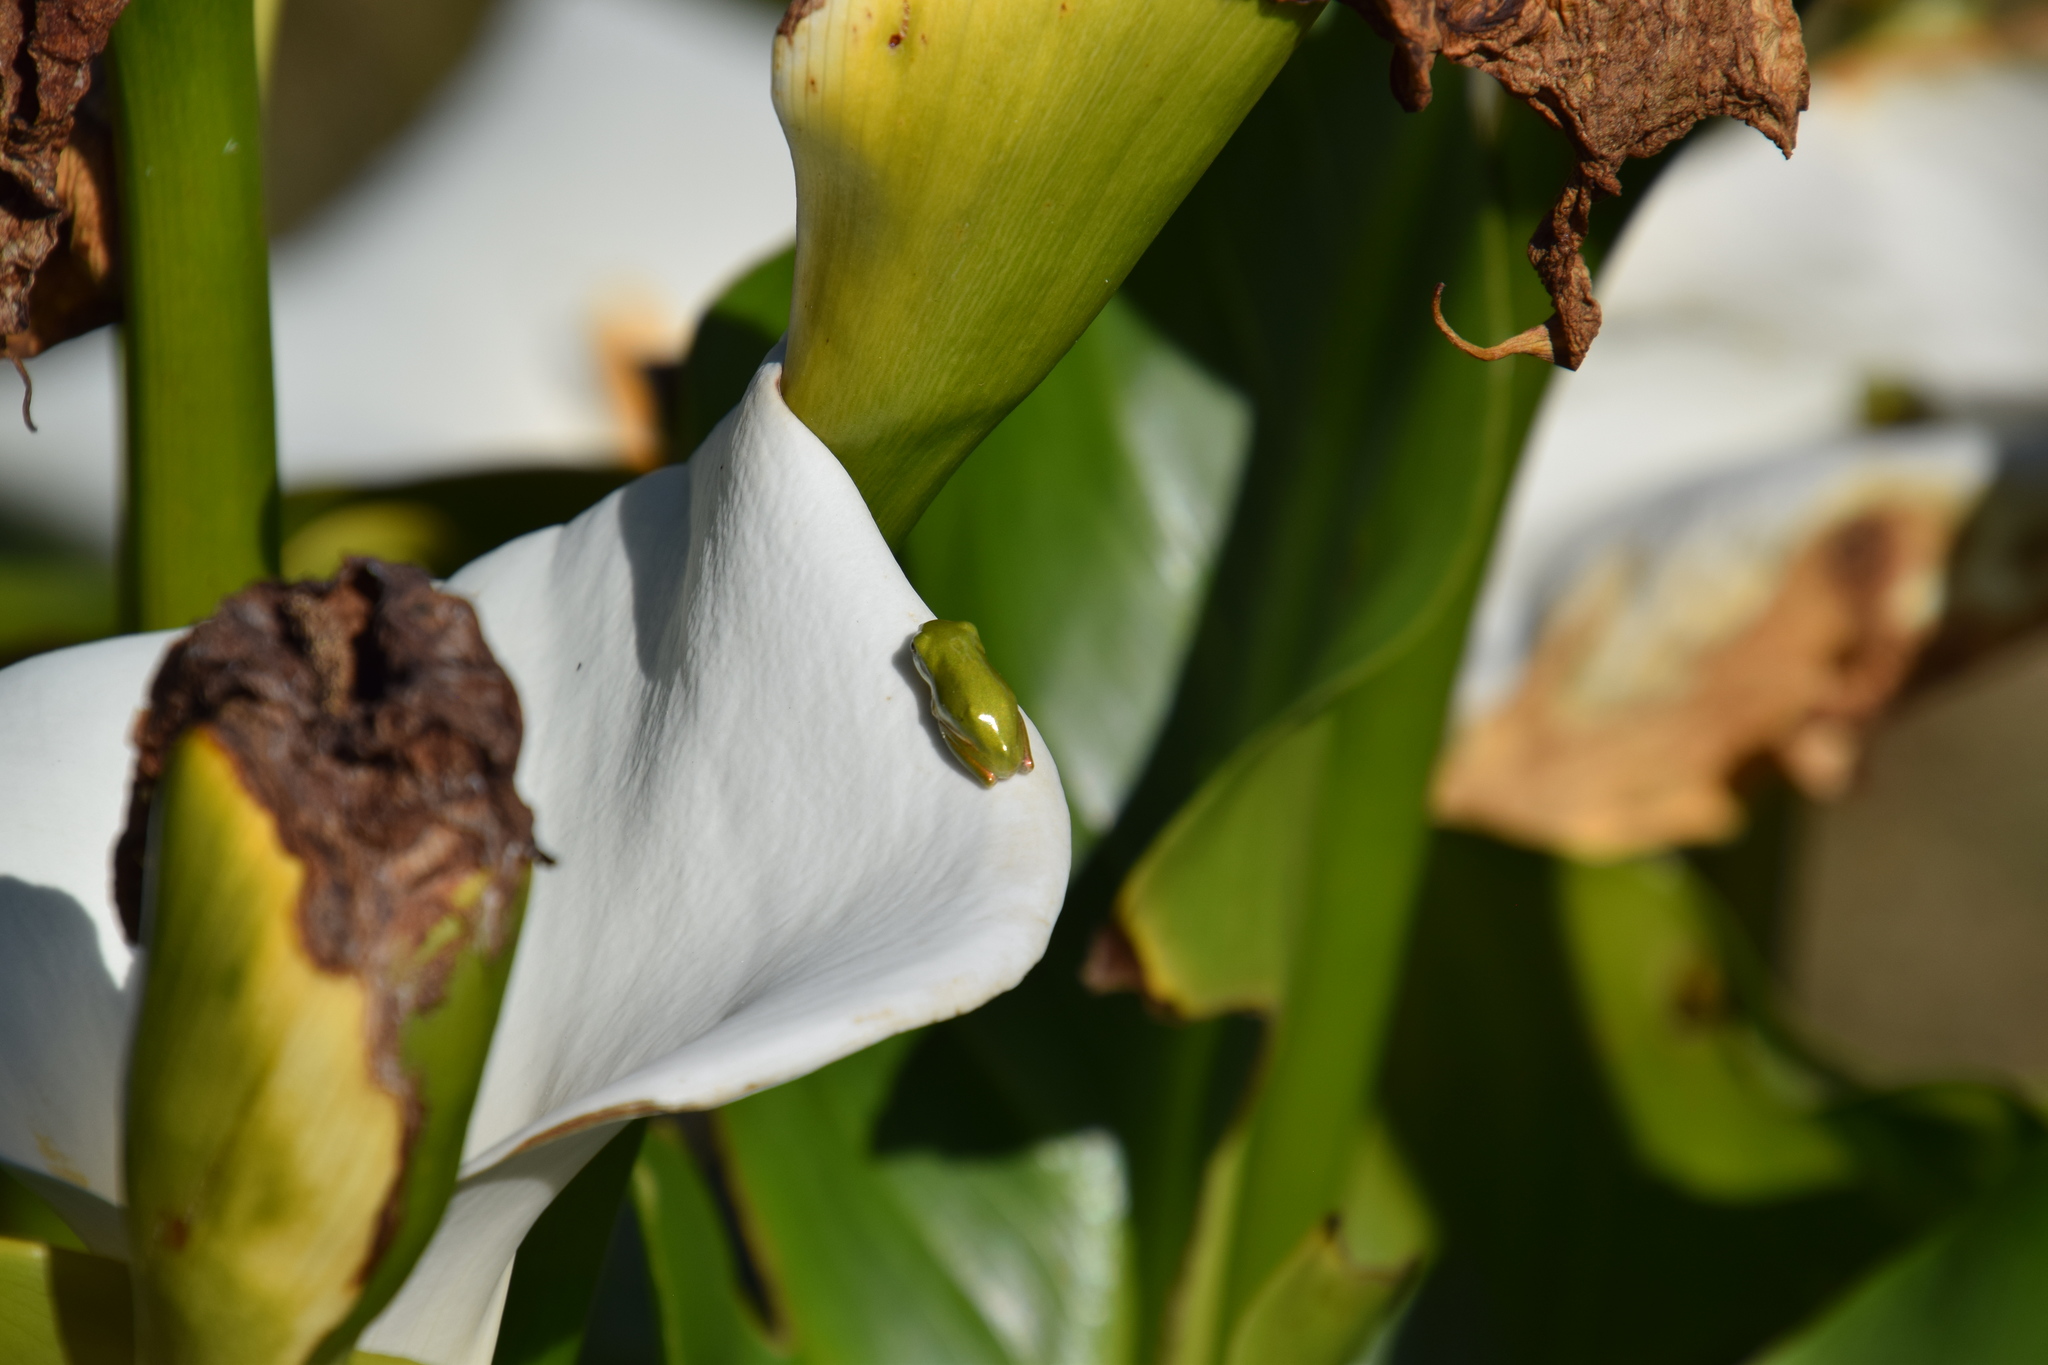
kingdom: Animalia
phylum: Chordata
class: Amphibia
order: Anura
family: Pelodryadidae
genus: Litoria
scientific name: Litoria fallax
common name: Eastern dwarf treefrog
